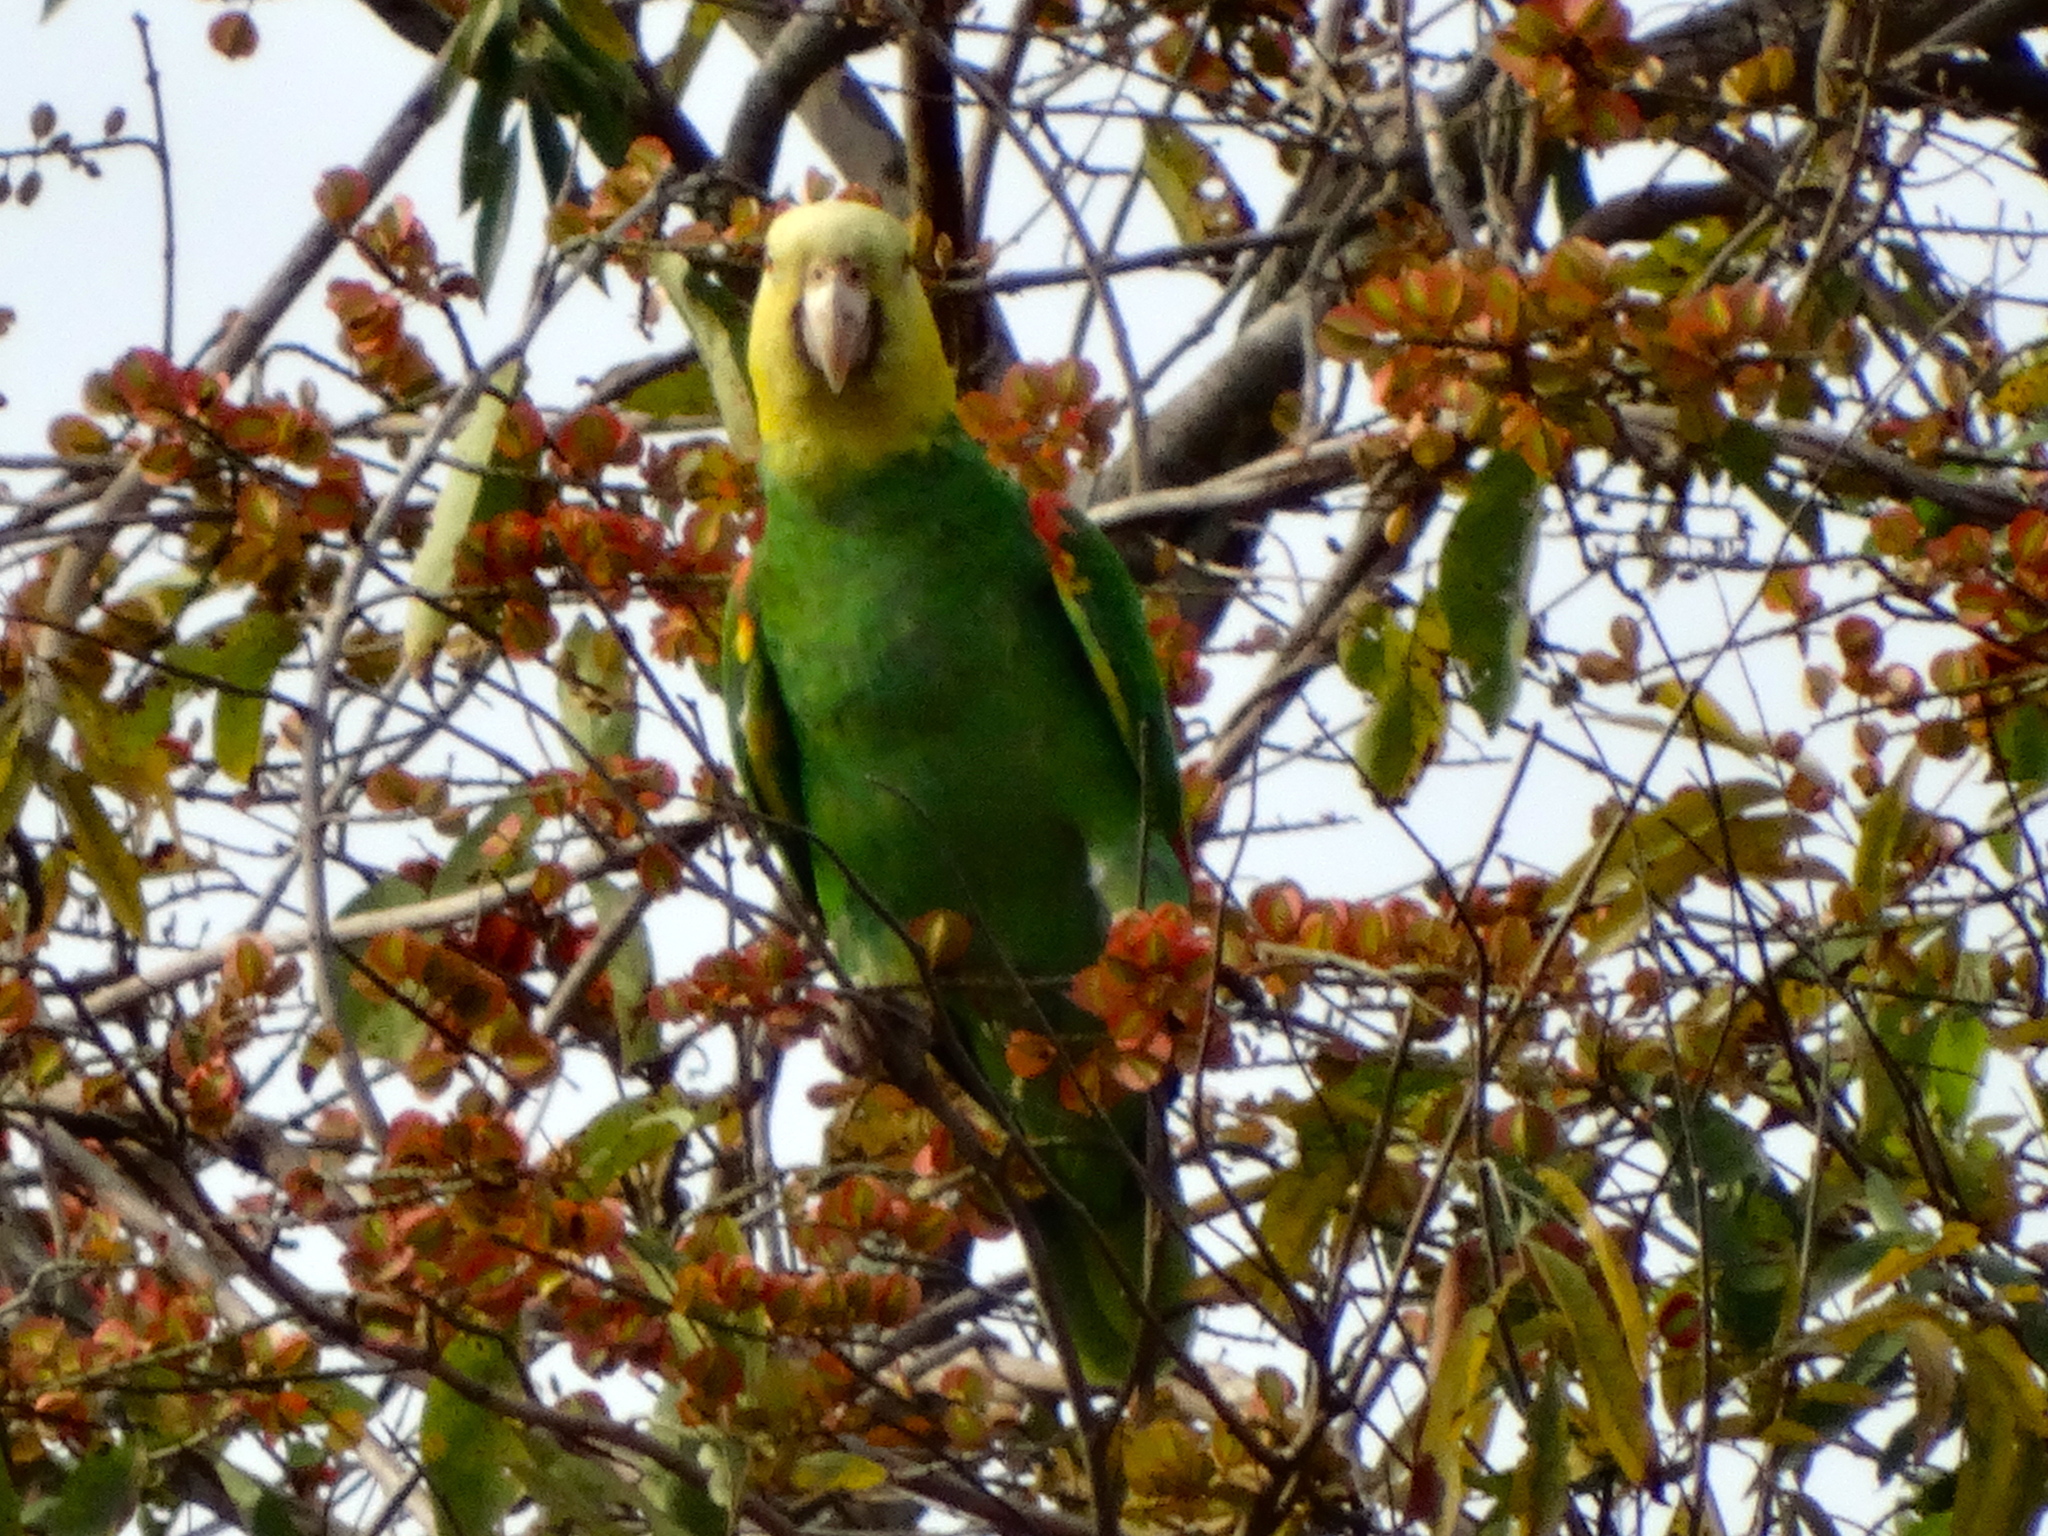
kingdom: Animalia
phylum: Chordata
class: Aves
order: Psittaciformes
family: Psittacidae
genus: Amazona
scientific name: Amazona oratrix
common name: Yellow-headed amazon
